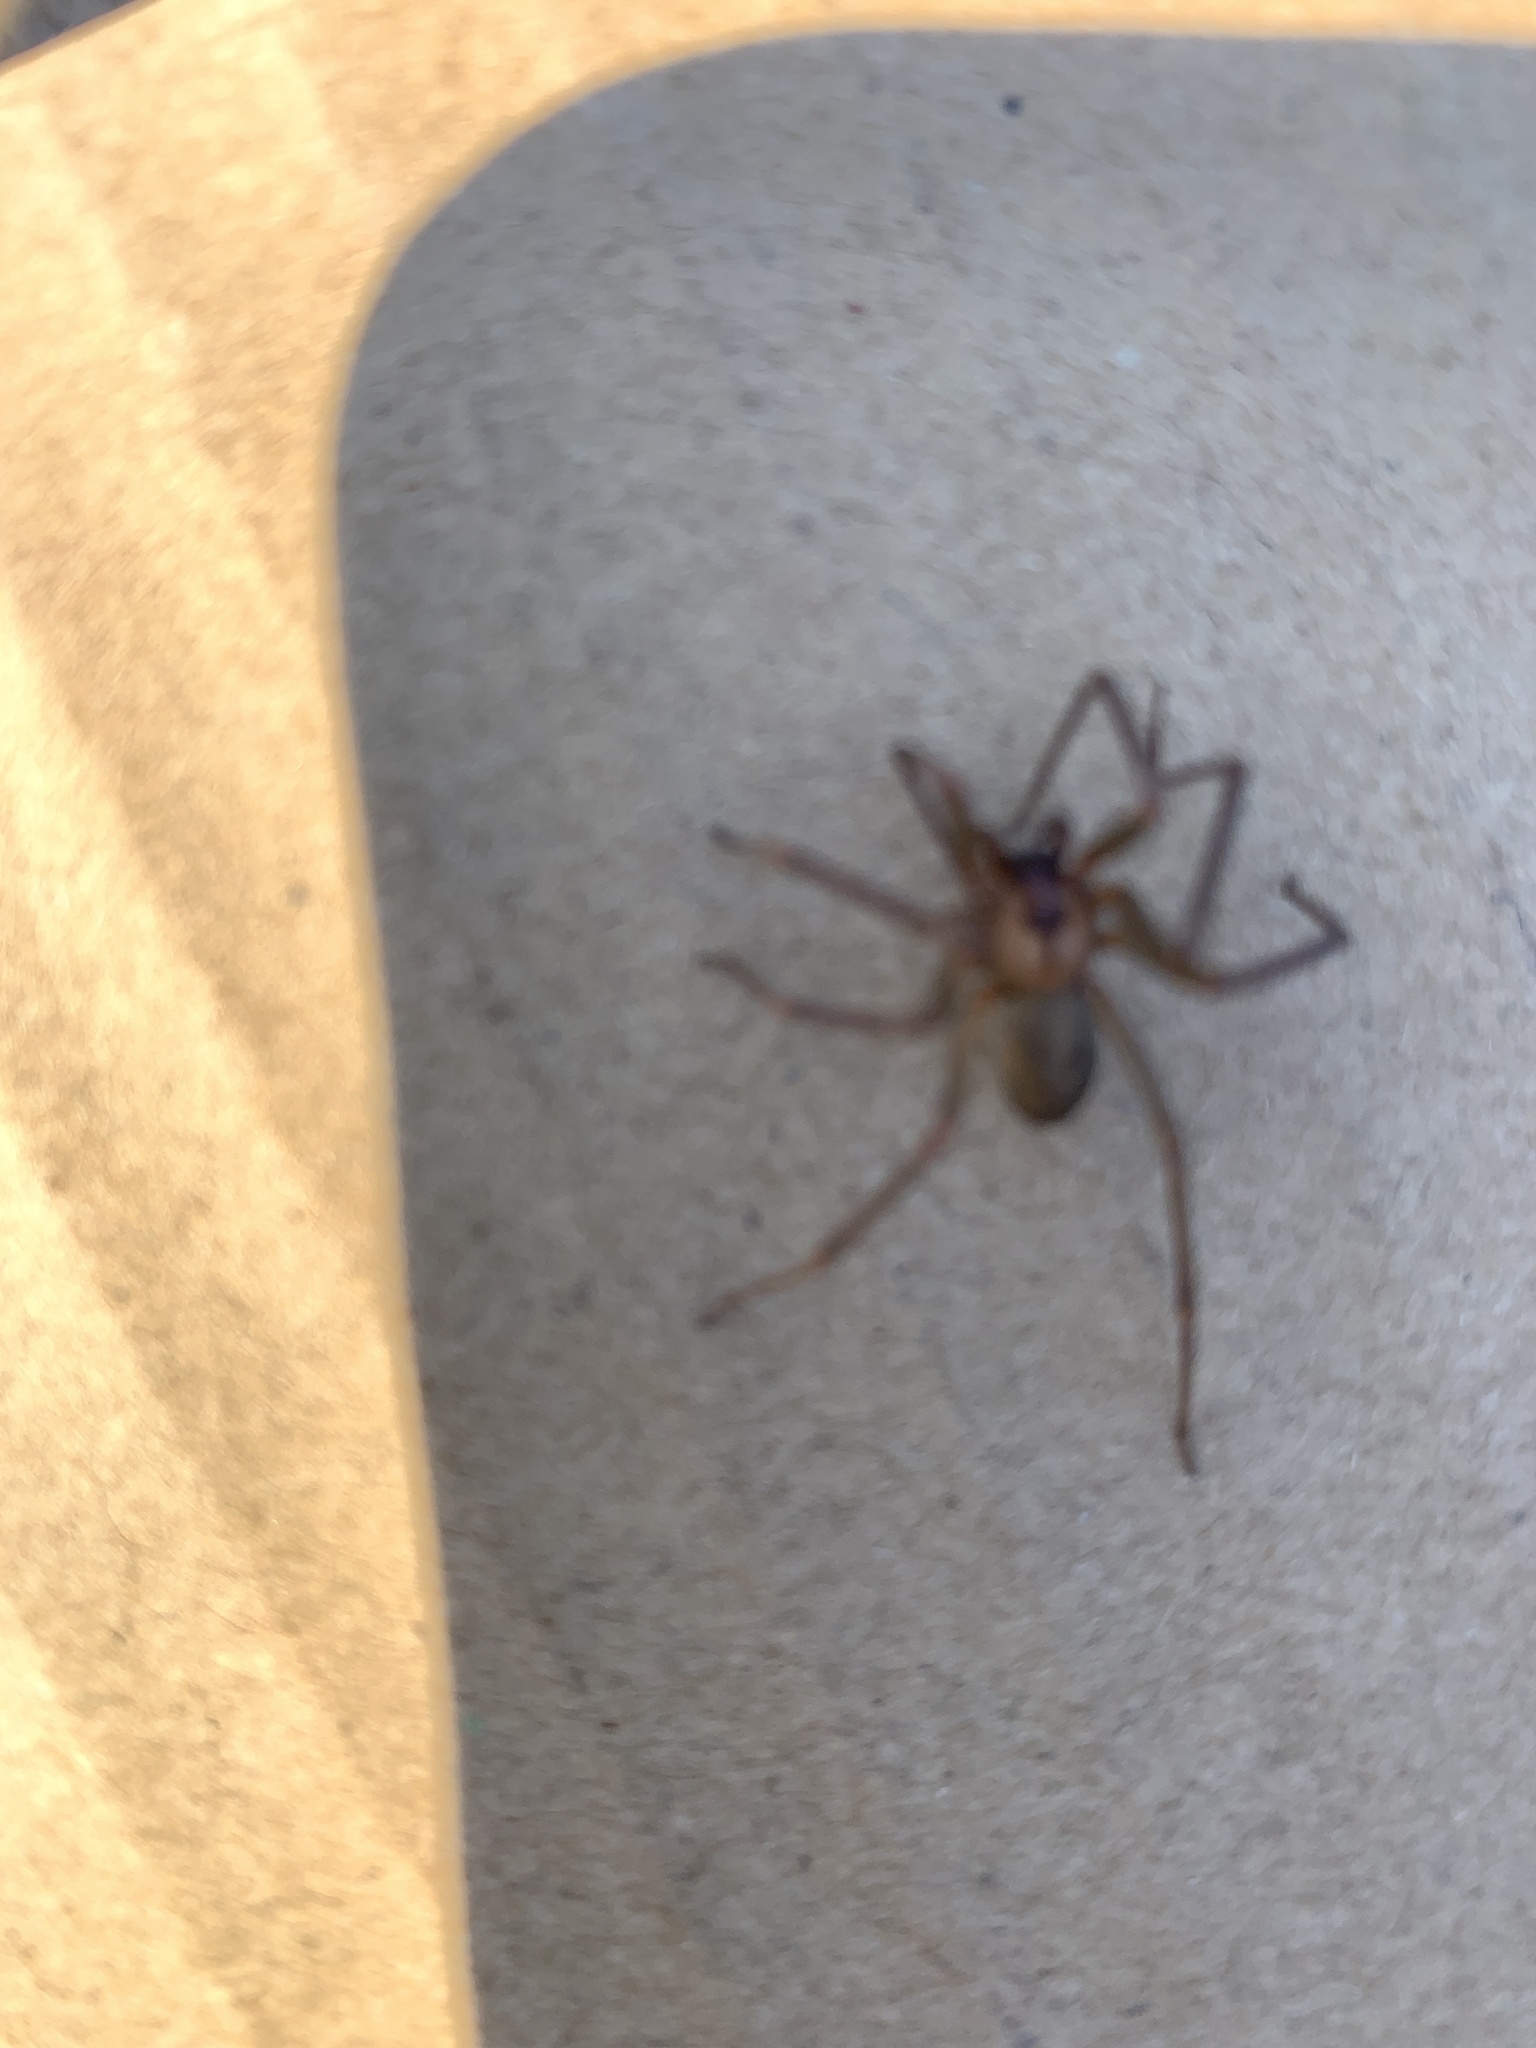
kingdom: Animalia
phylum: Arthropoda
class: Arachnida
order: Araneae
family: Sicariidae
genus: Loxosceles
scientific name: Loxosceles reclusa
